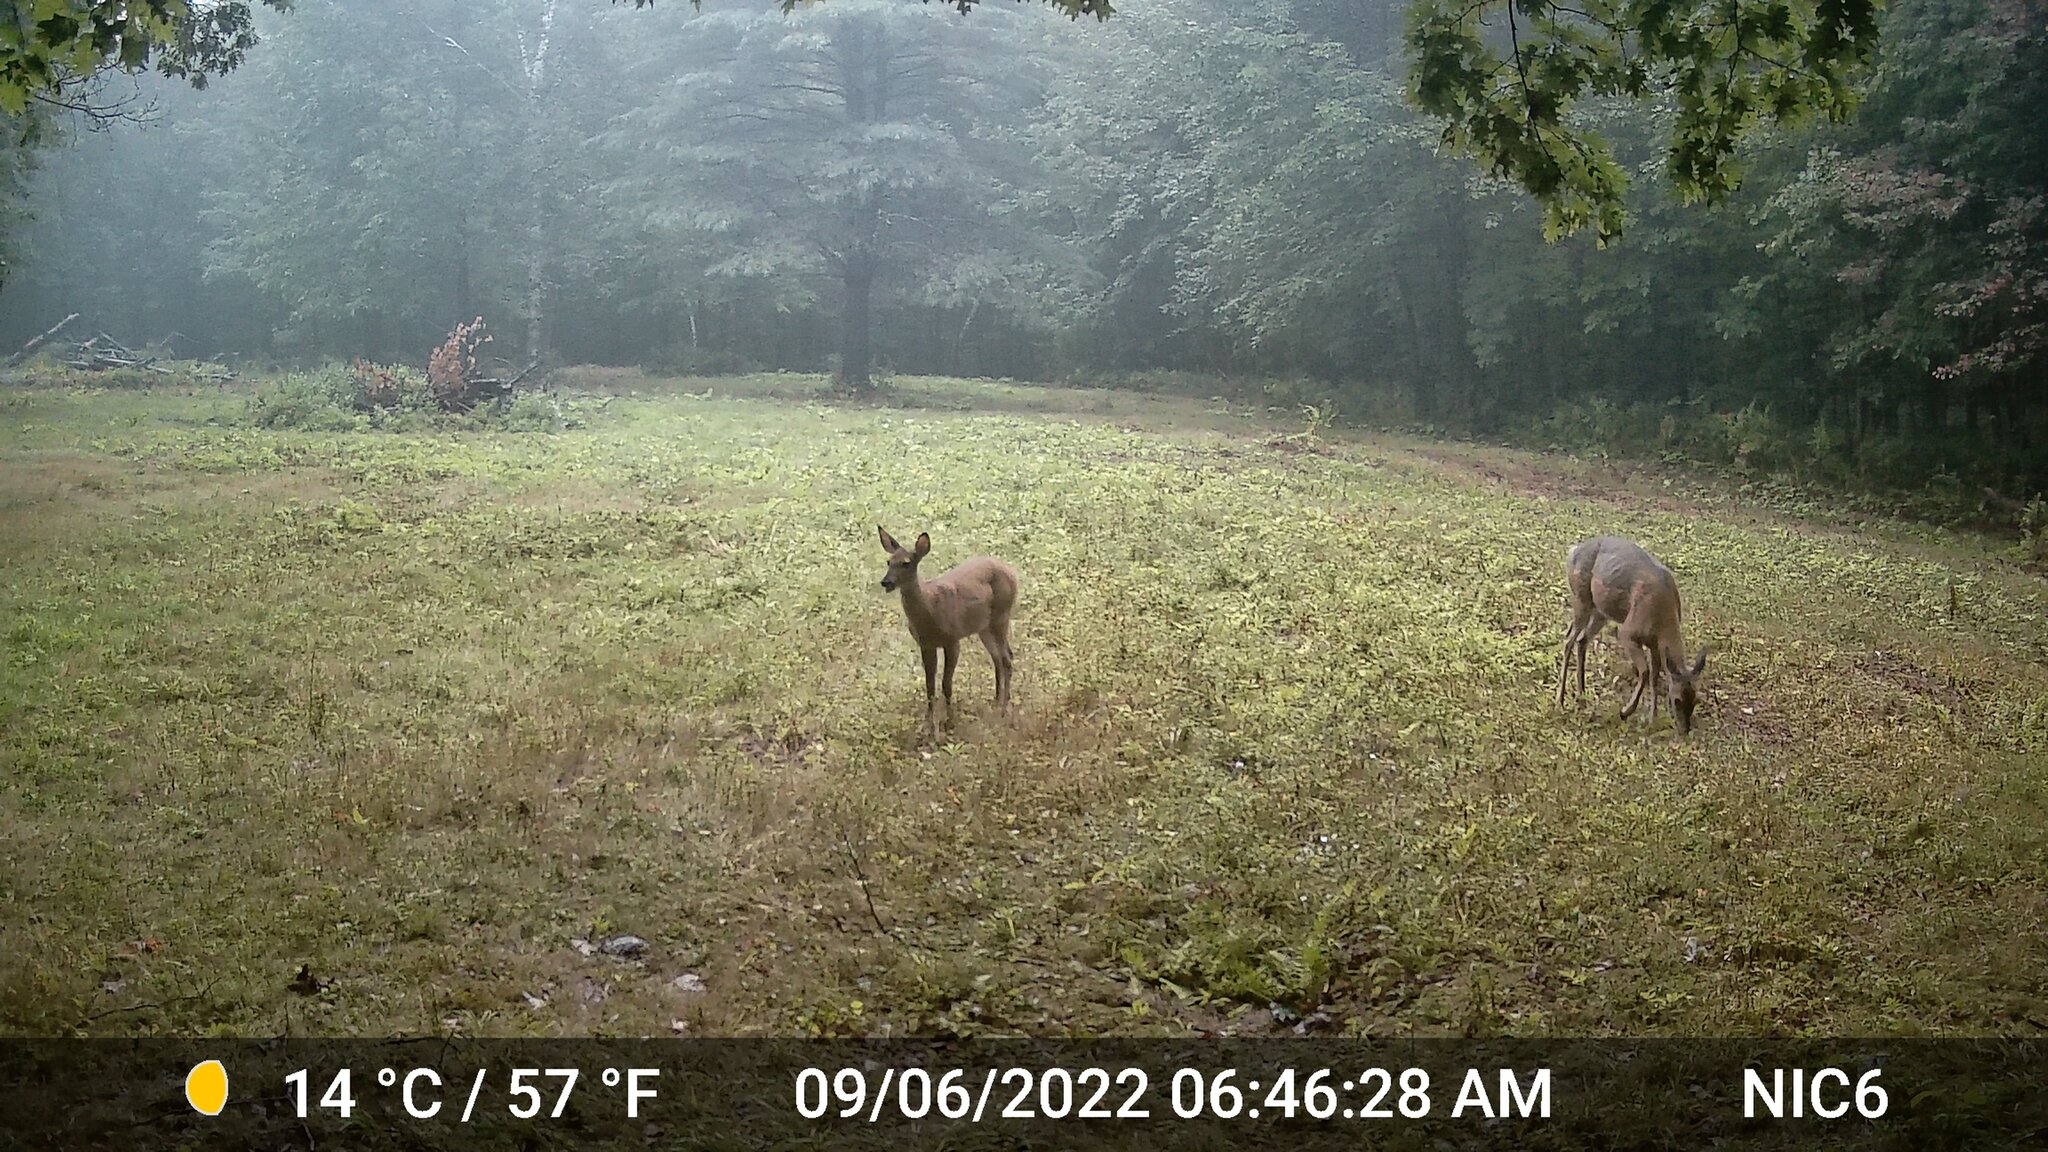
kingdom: Animalia
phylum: Chordata
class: Mammalia
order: Artiodactyla
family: Cervidae
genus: Odocoileus
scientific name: Odocoileus virginianus
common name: White-tailed deer
